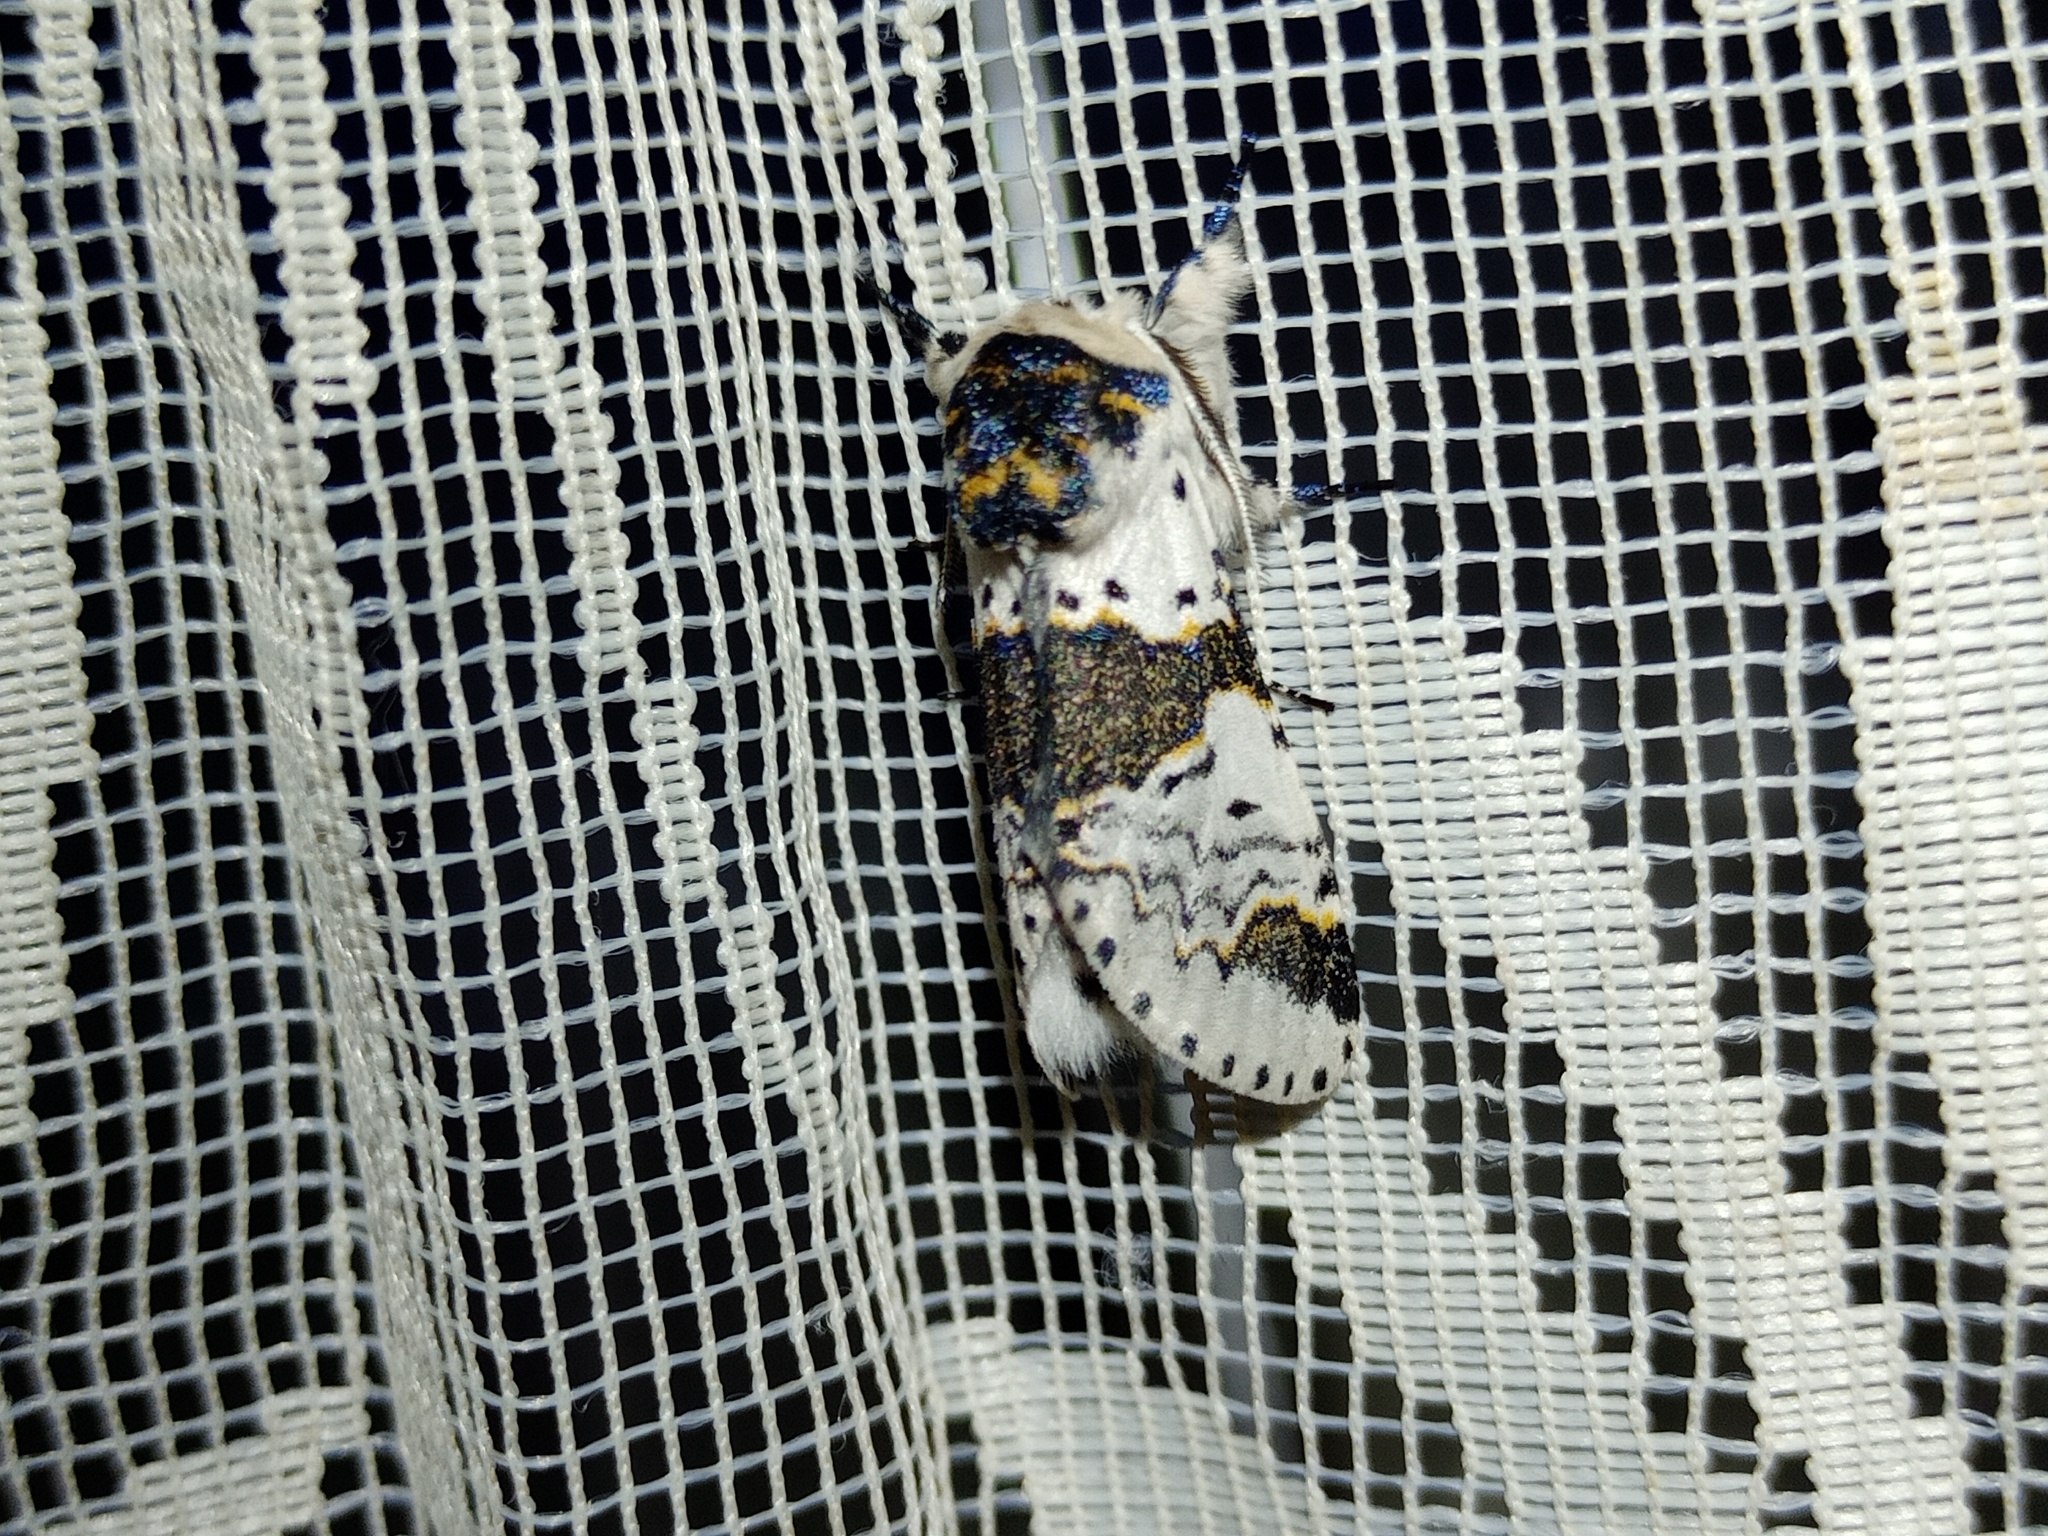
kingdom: Animalia
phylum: Arthropoda
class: Insecta
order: Lepidoptera
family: Notodontidae
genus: Furcula
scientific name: Furcula bicuspis
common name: Alder kitten
